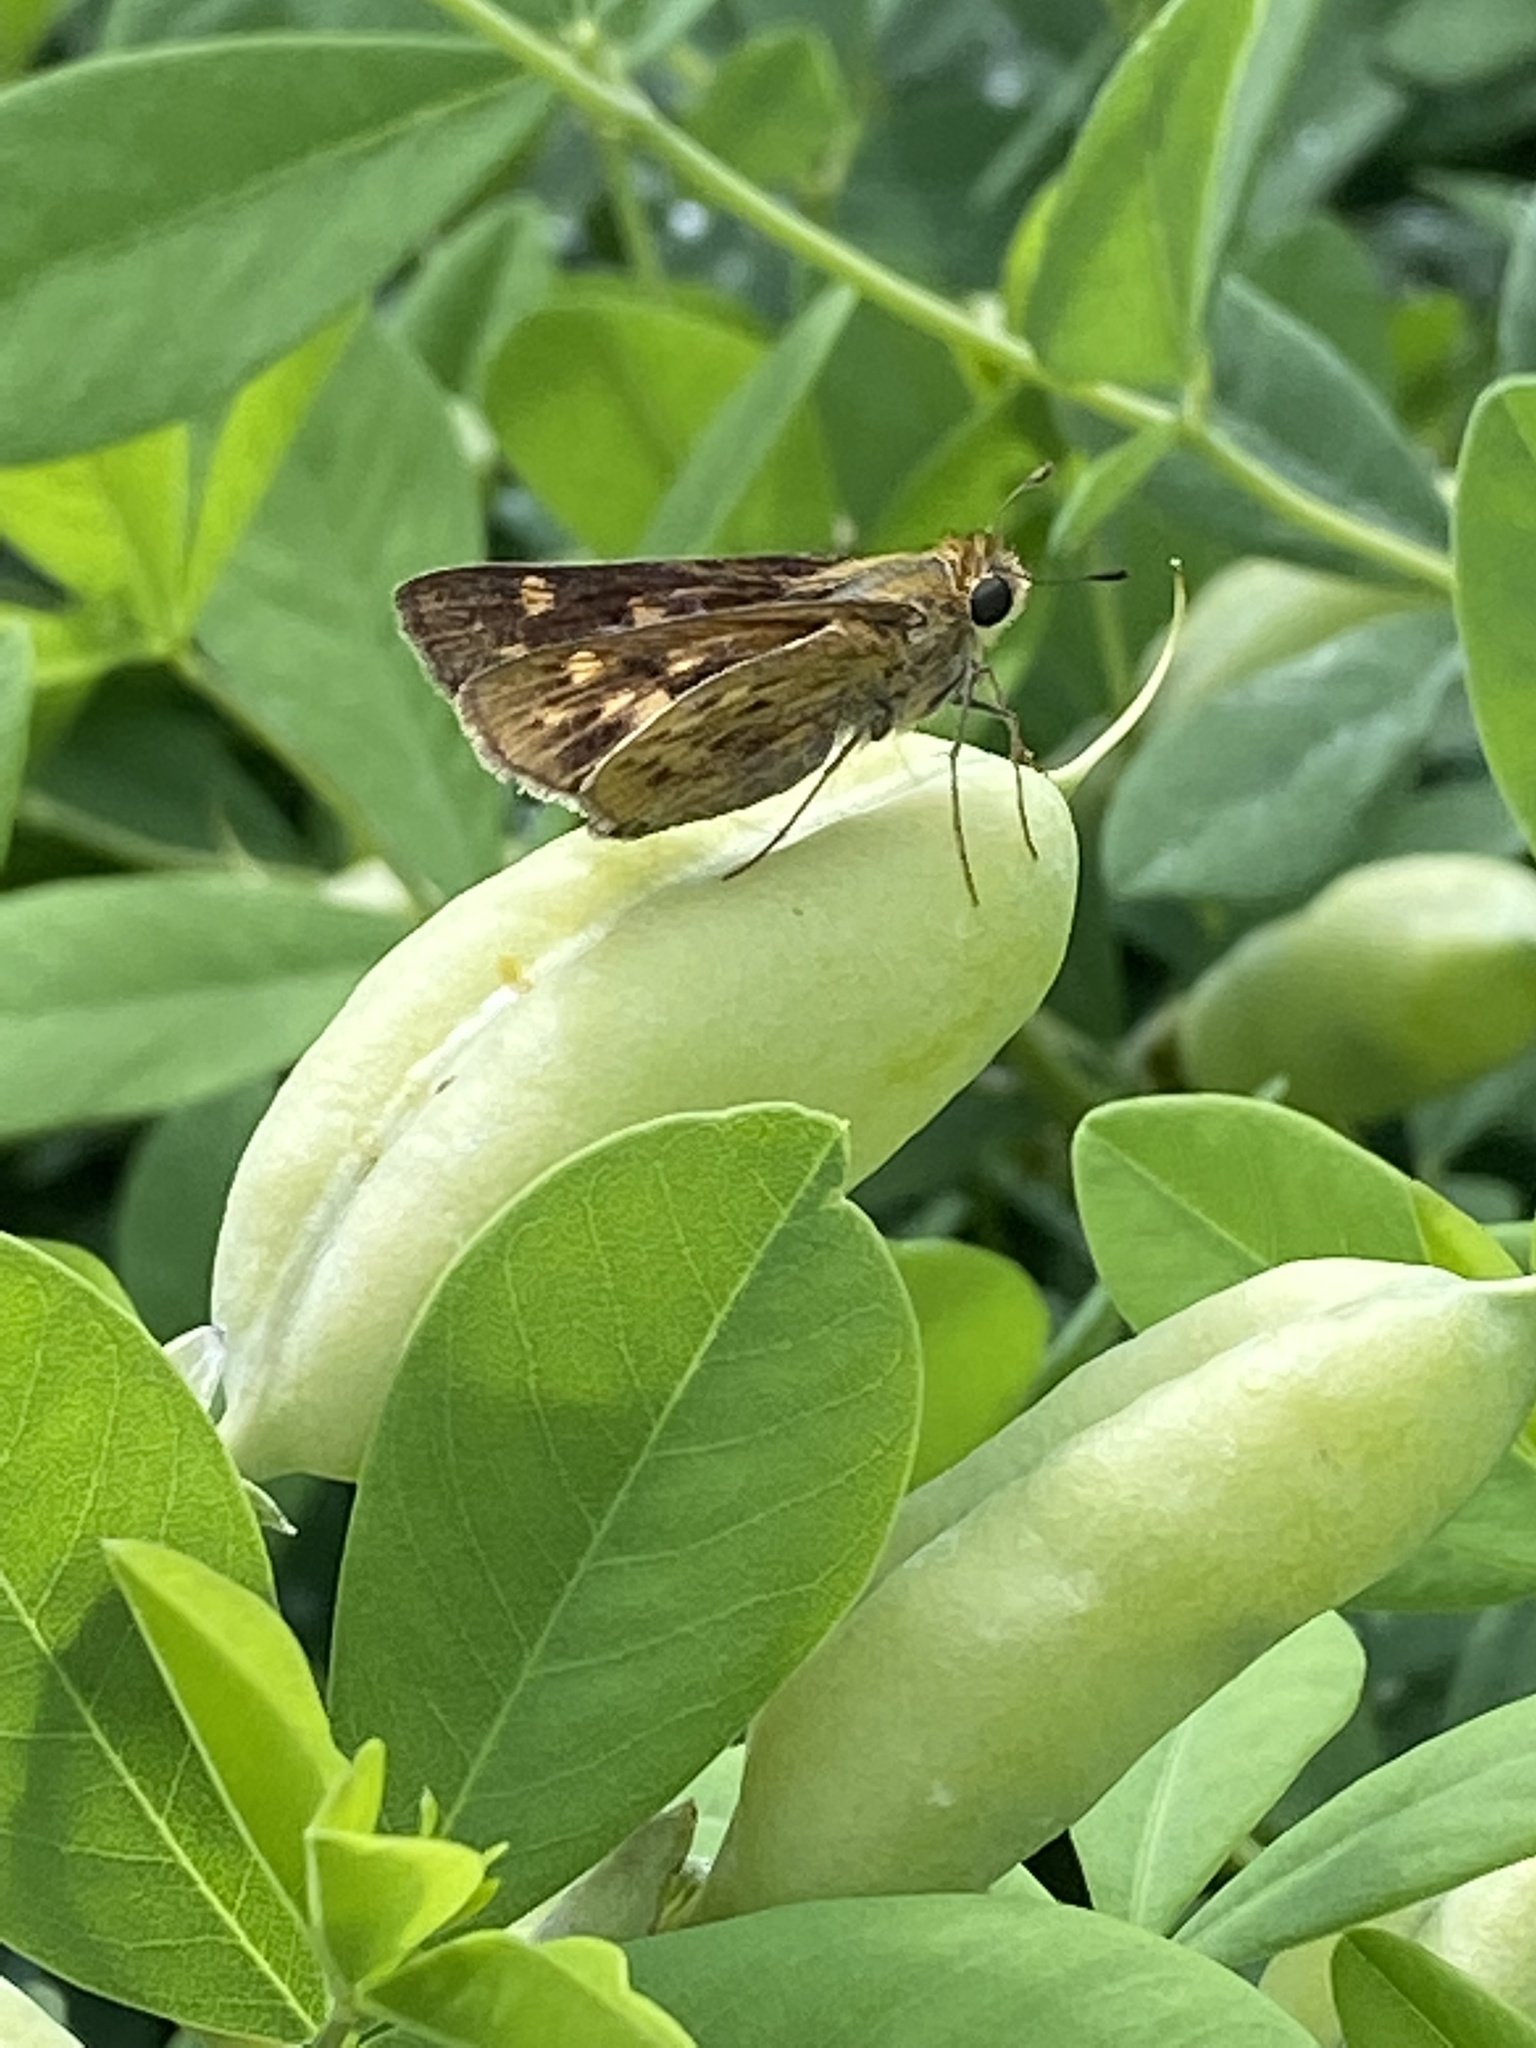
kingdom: Animalia
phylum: Arthropoda
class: Insecta
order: Lepidoptera
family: Hesperiidae
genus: Hylephila
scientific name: Hylephila phyleus
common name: Fiery skipper
